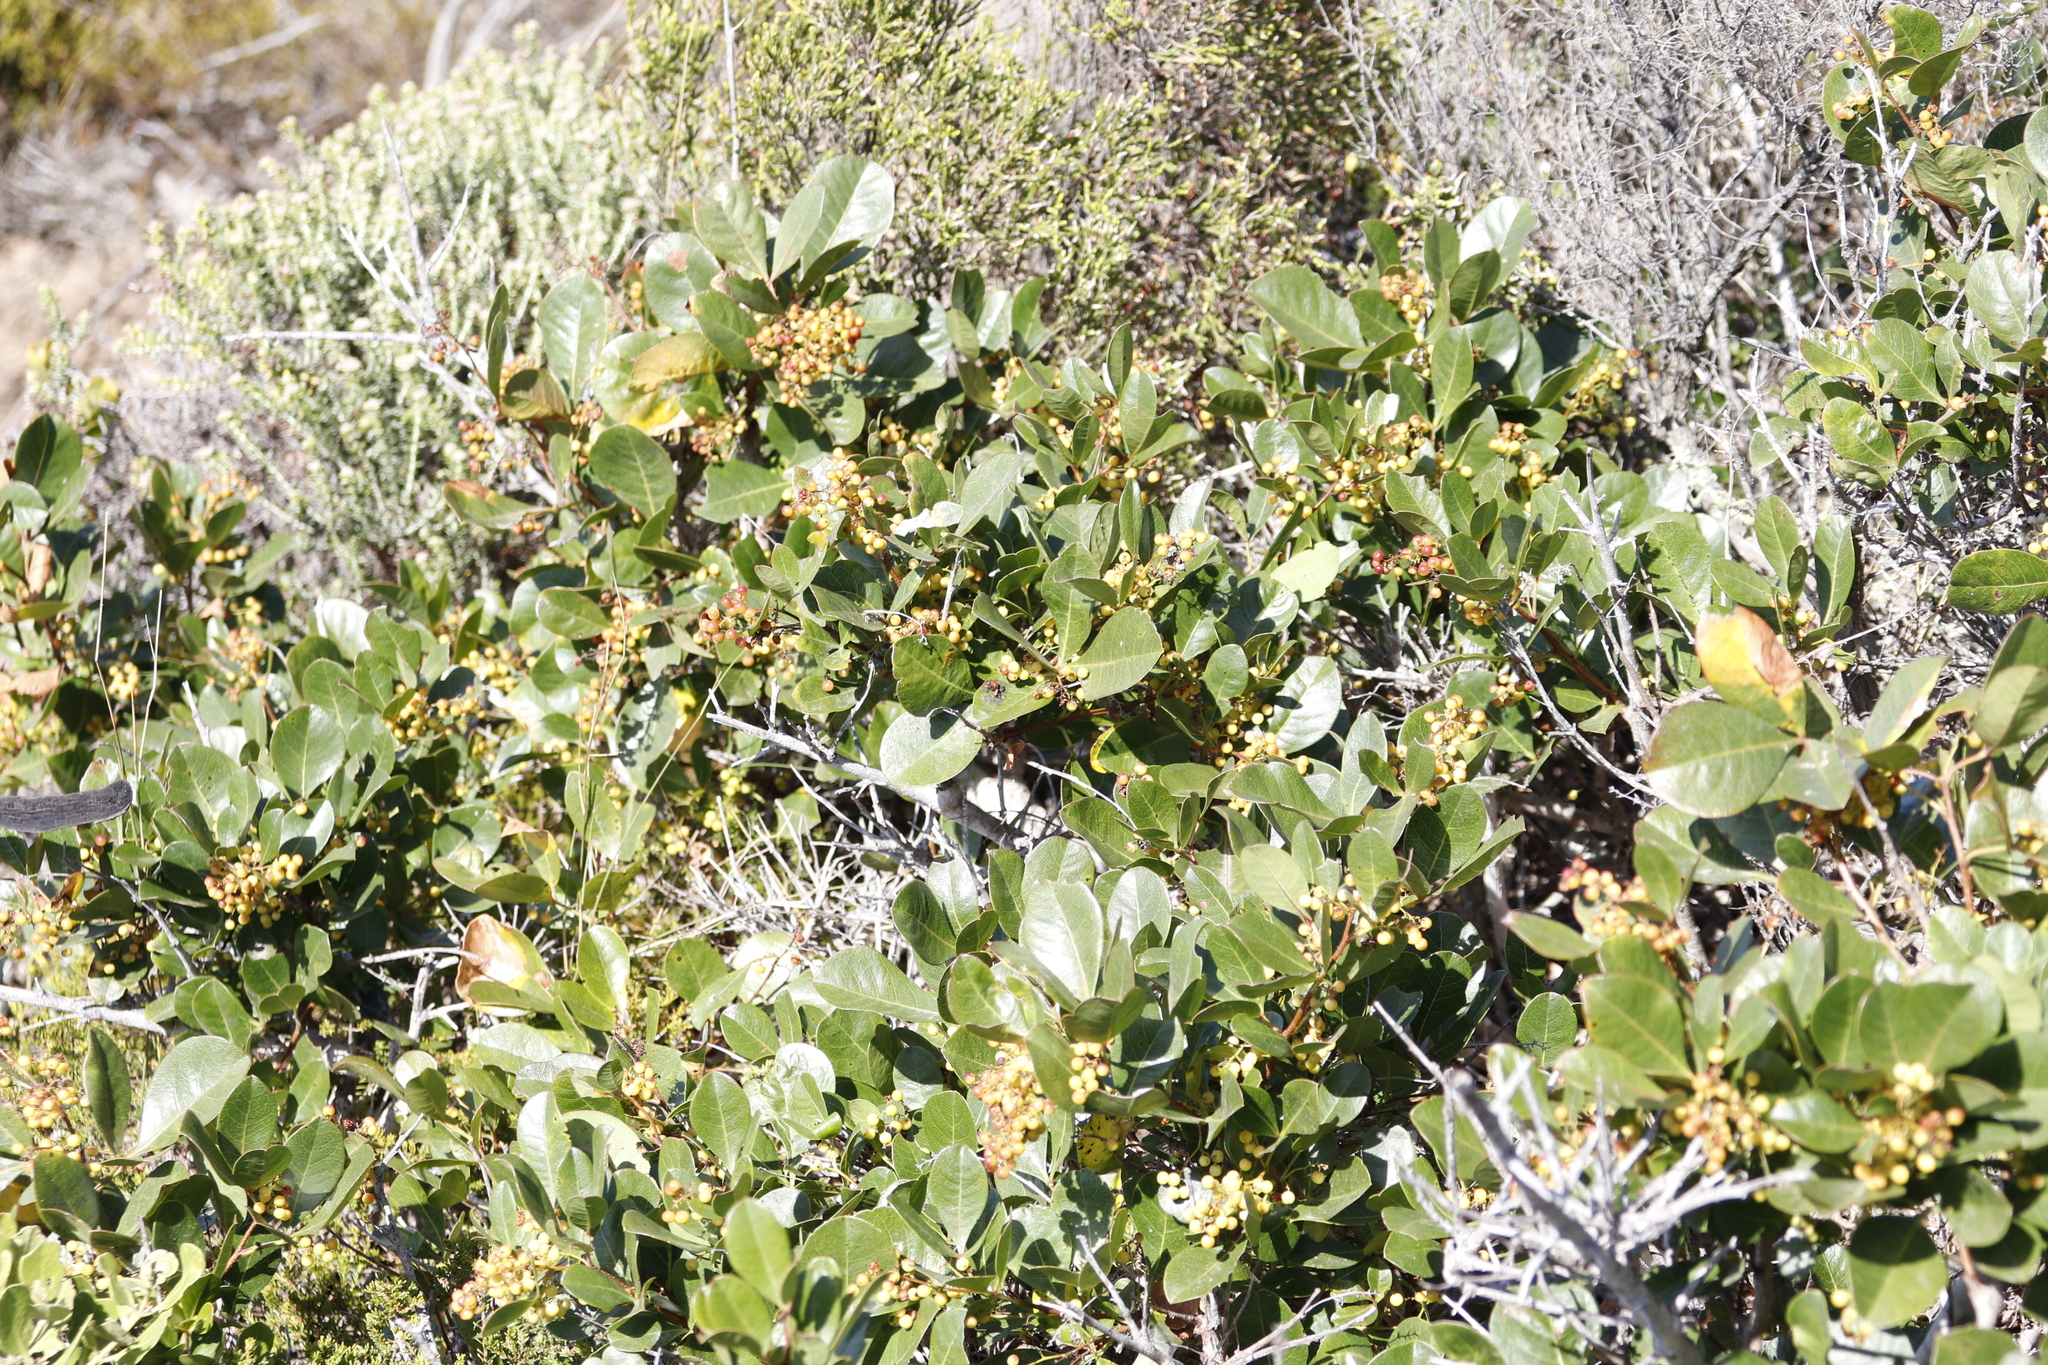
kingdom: Plantae
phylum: Tracheophyta
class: Magnoliopsida
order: Sapindales
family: Anacardiaceae
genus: Searsia
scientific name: Searsia laevigata
